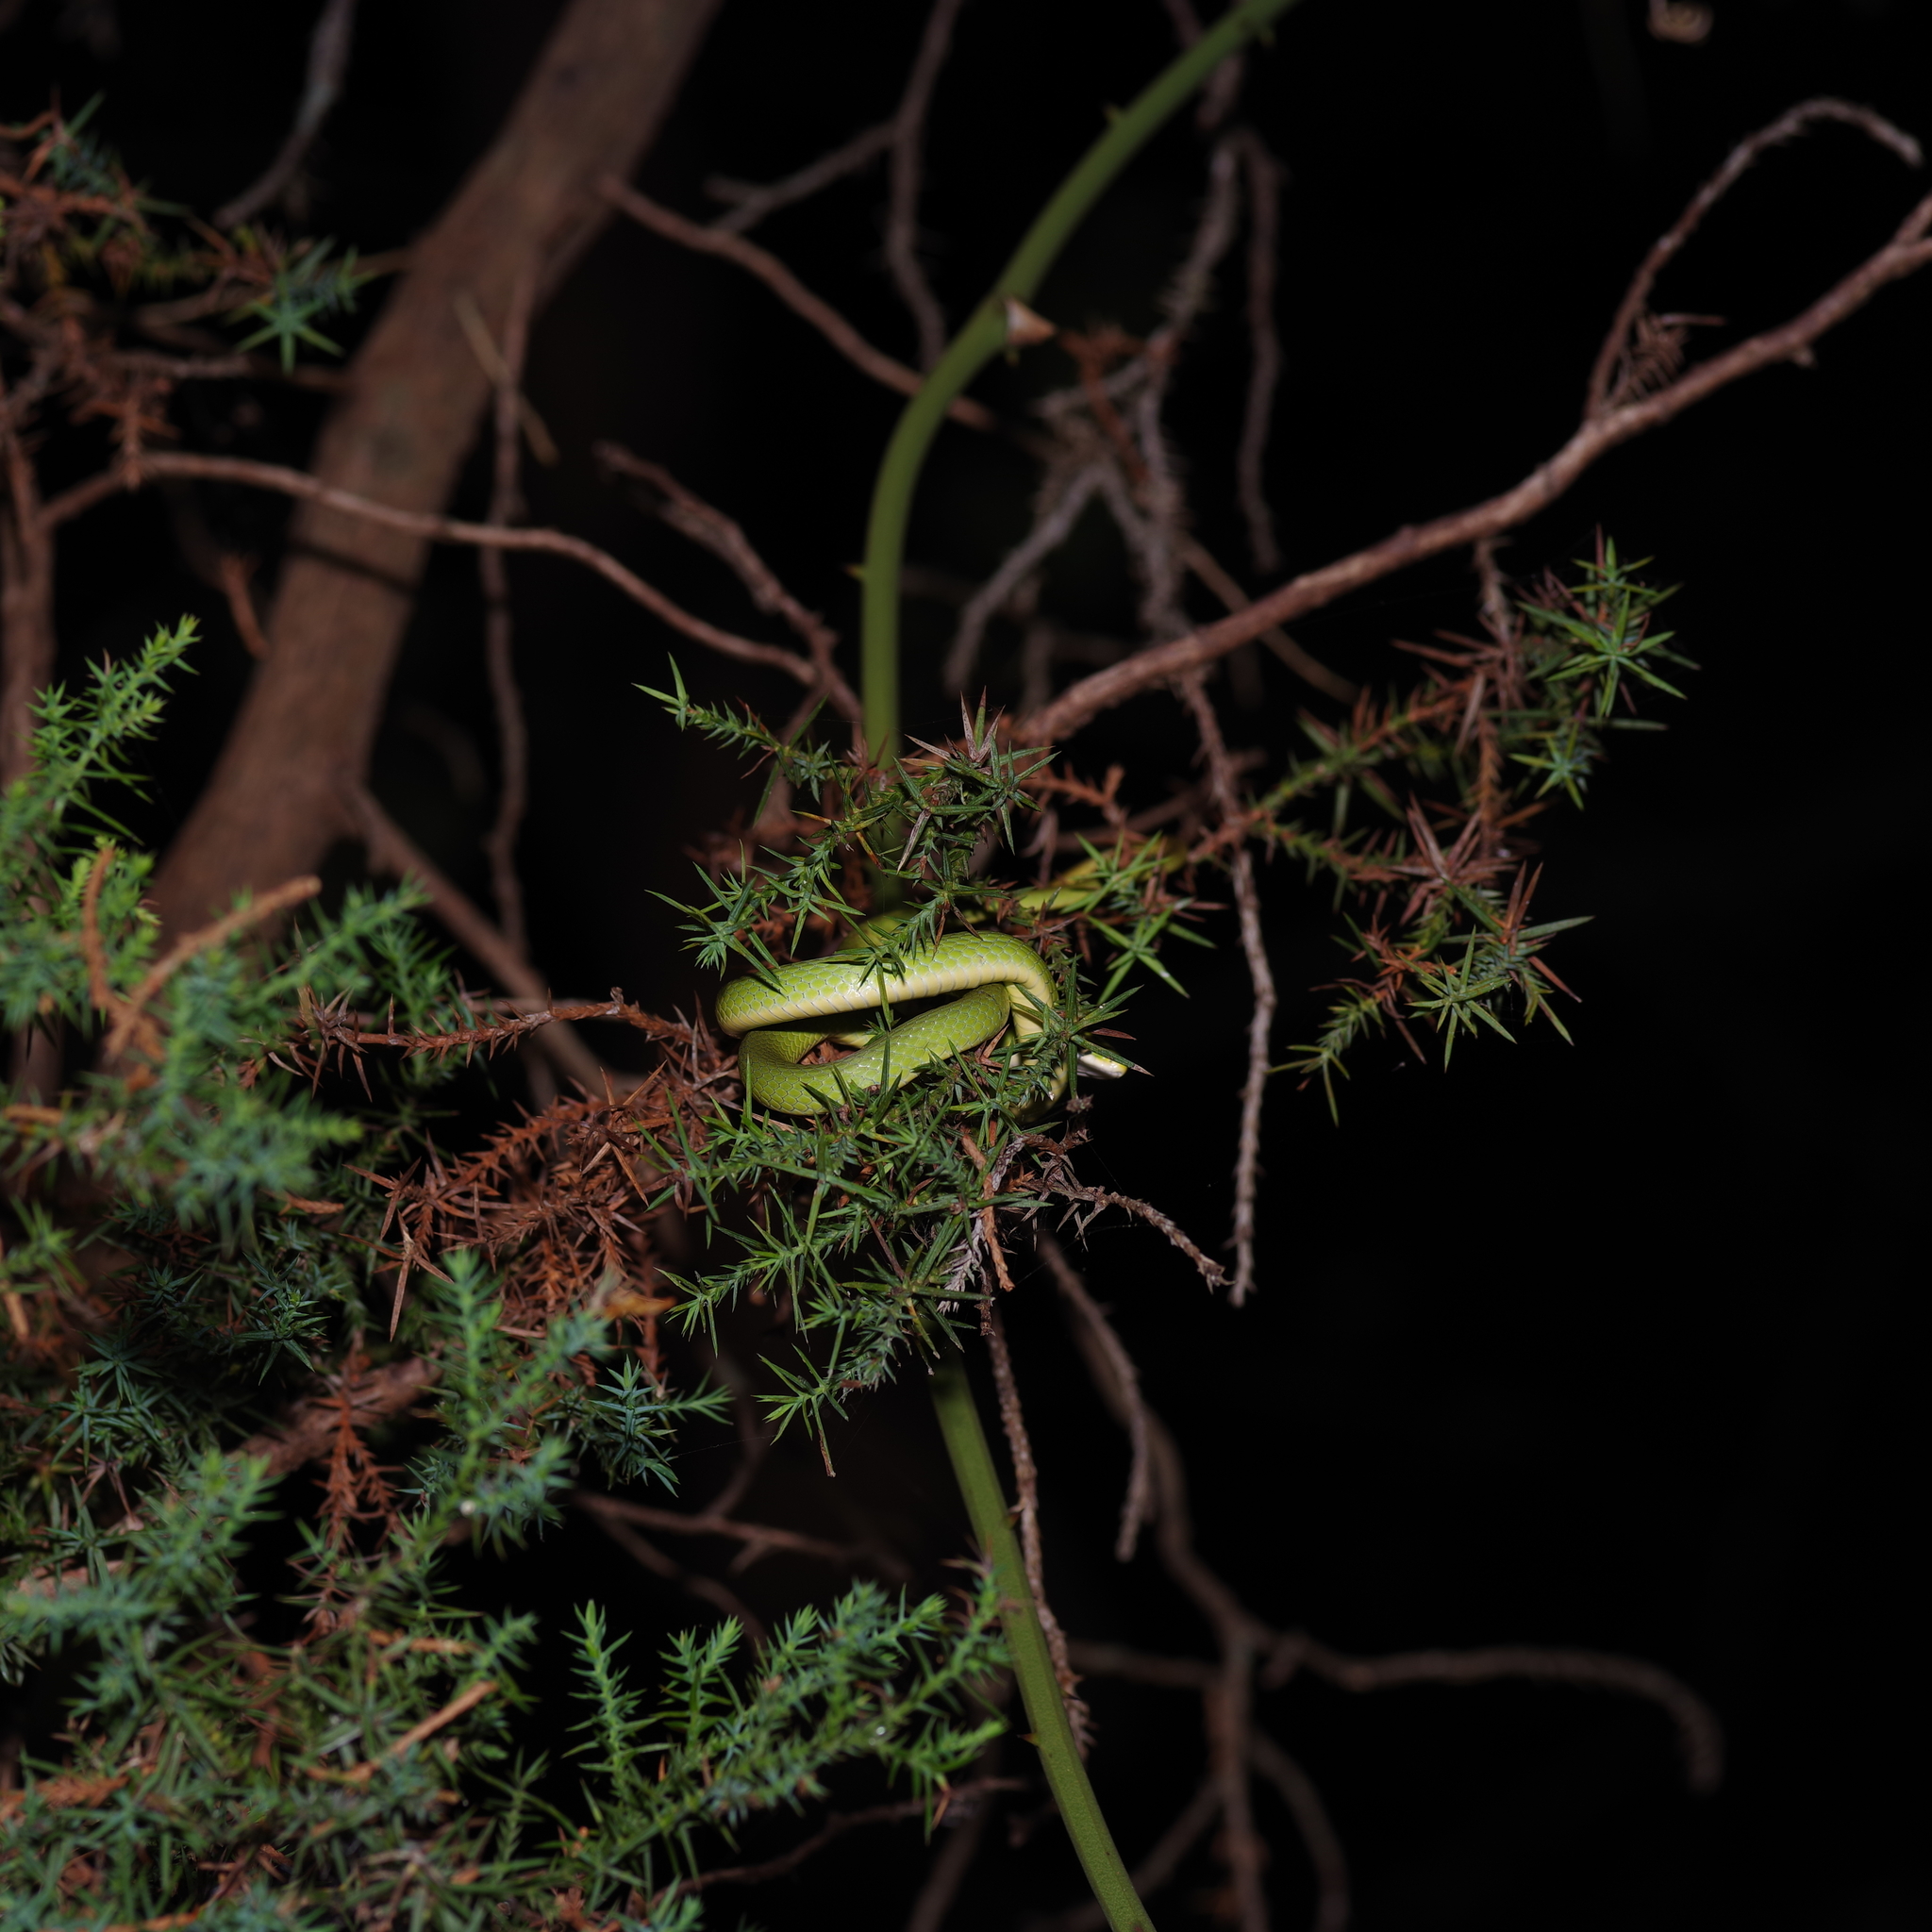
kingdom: Animalia
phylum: Chordata
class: Squamata
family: Colubridae
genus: Opheodrys
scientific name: Opheodrys aestivus
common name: Rough greensnake
